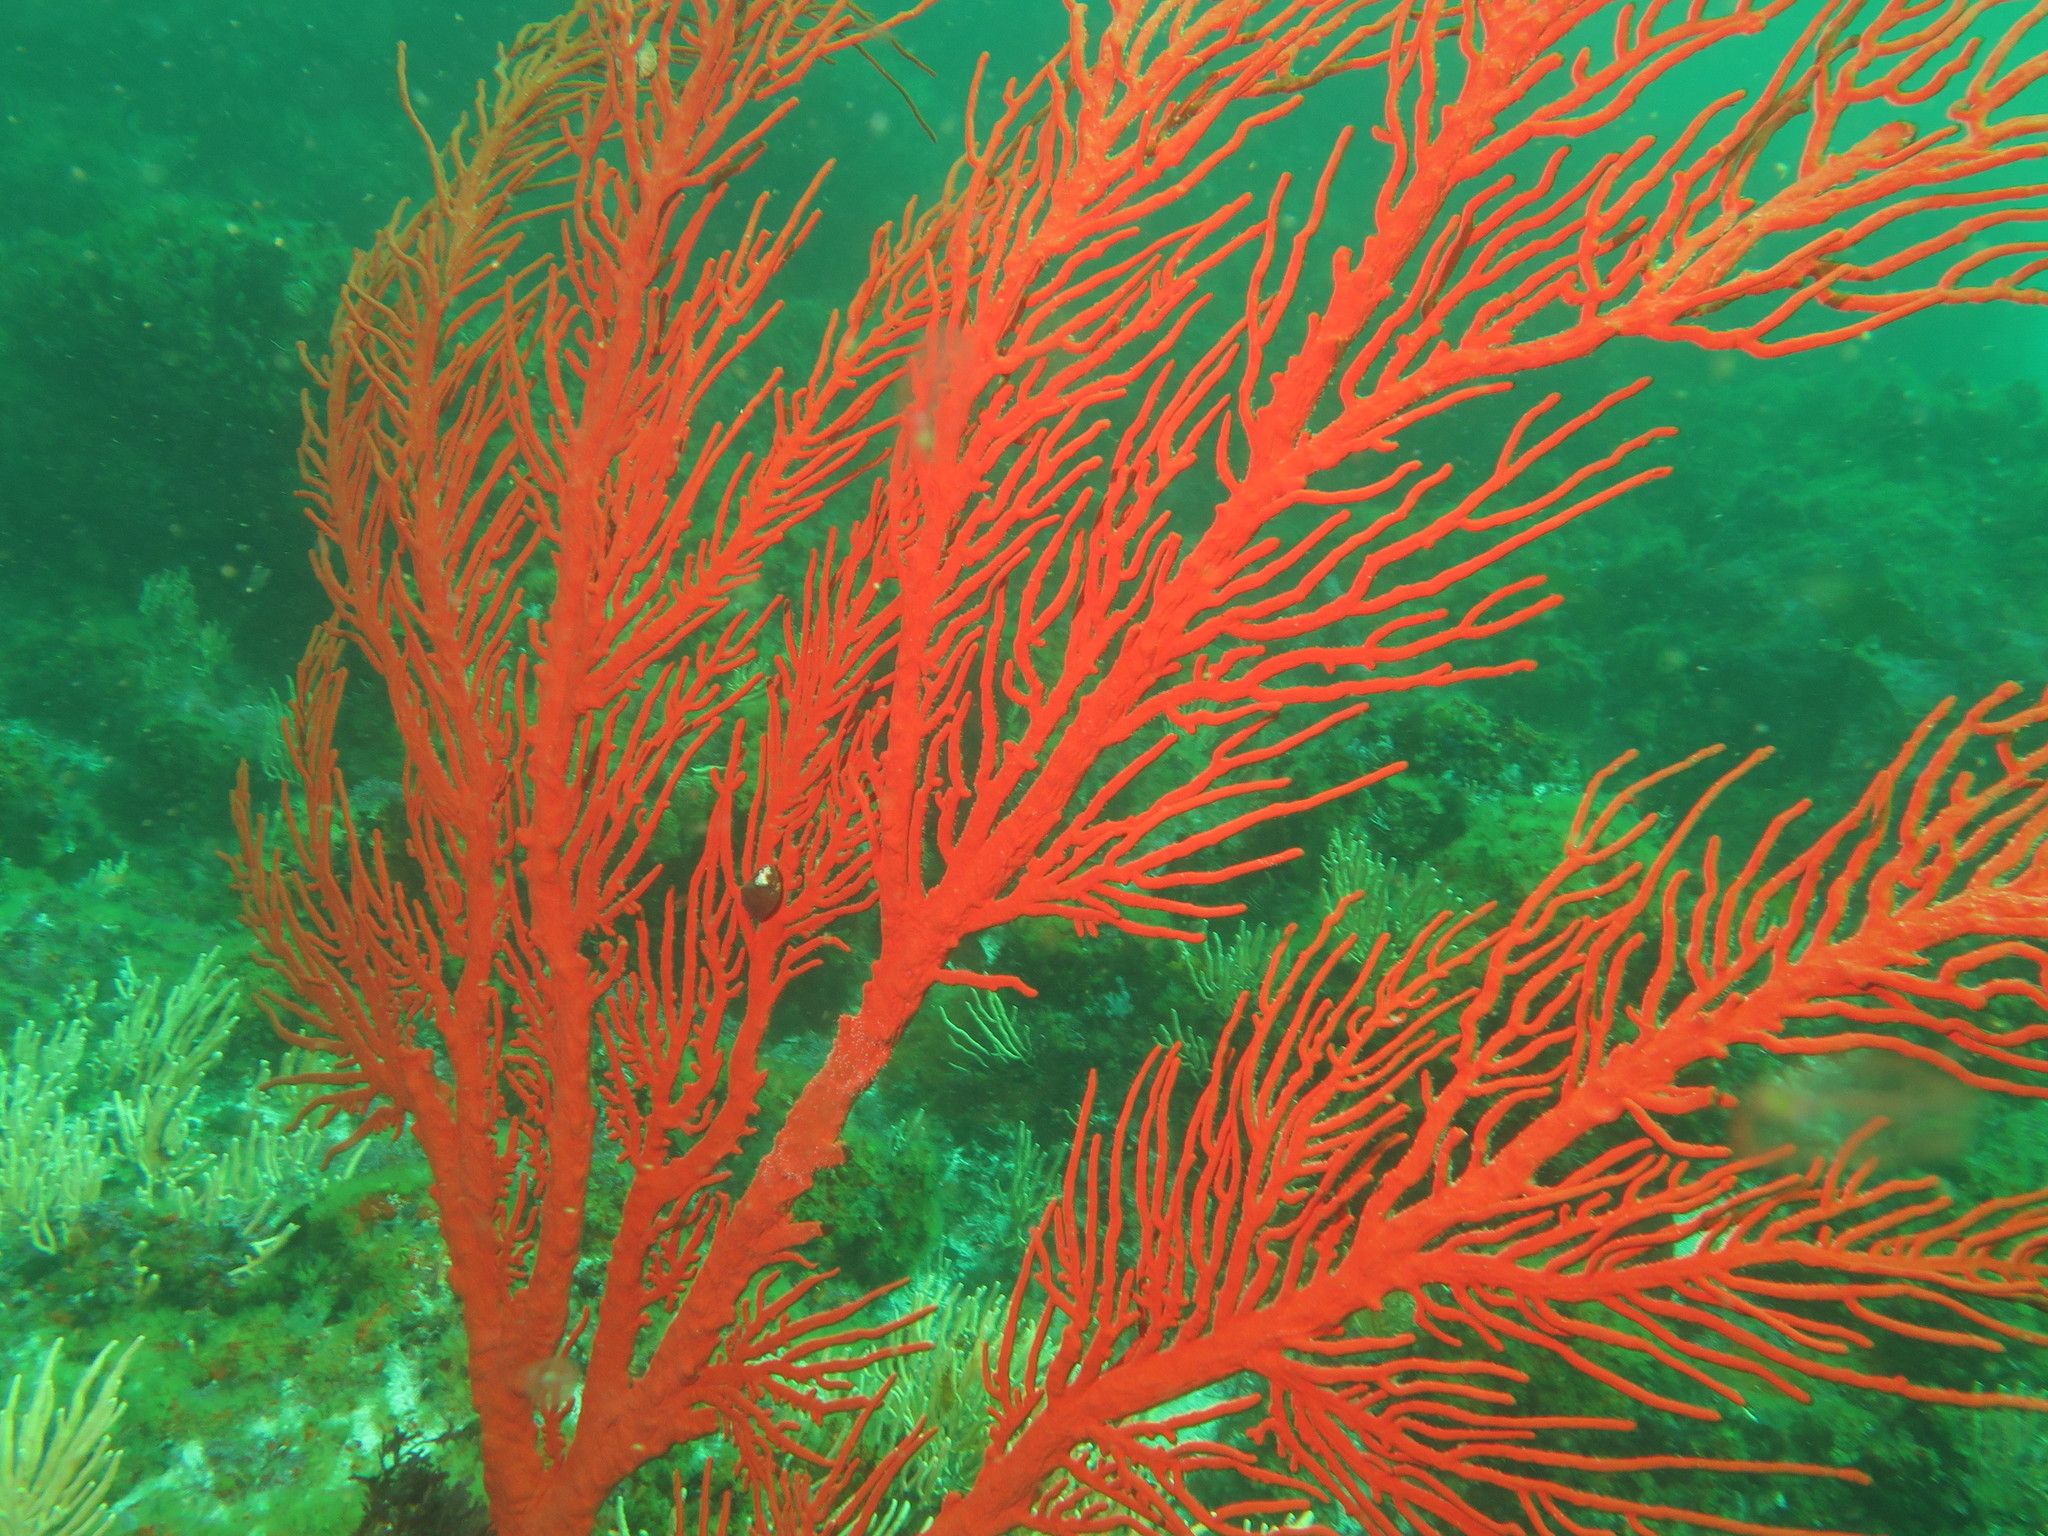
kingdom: Animalia
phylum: Cnidaria
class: Anthozoa
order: Malacalcyonacea
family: Gorgoniidae
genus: Leptogorgia
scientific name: Leptogorgia palma
